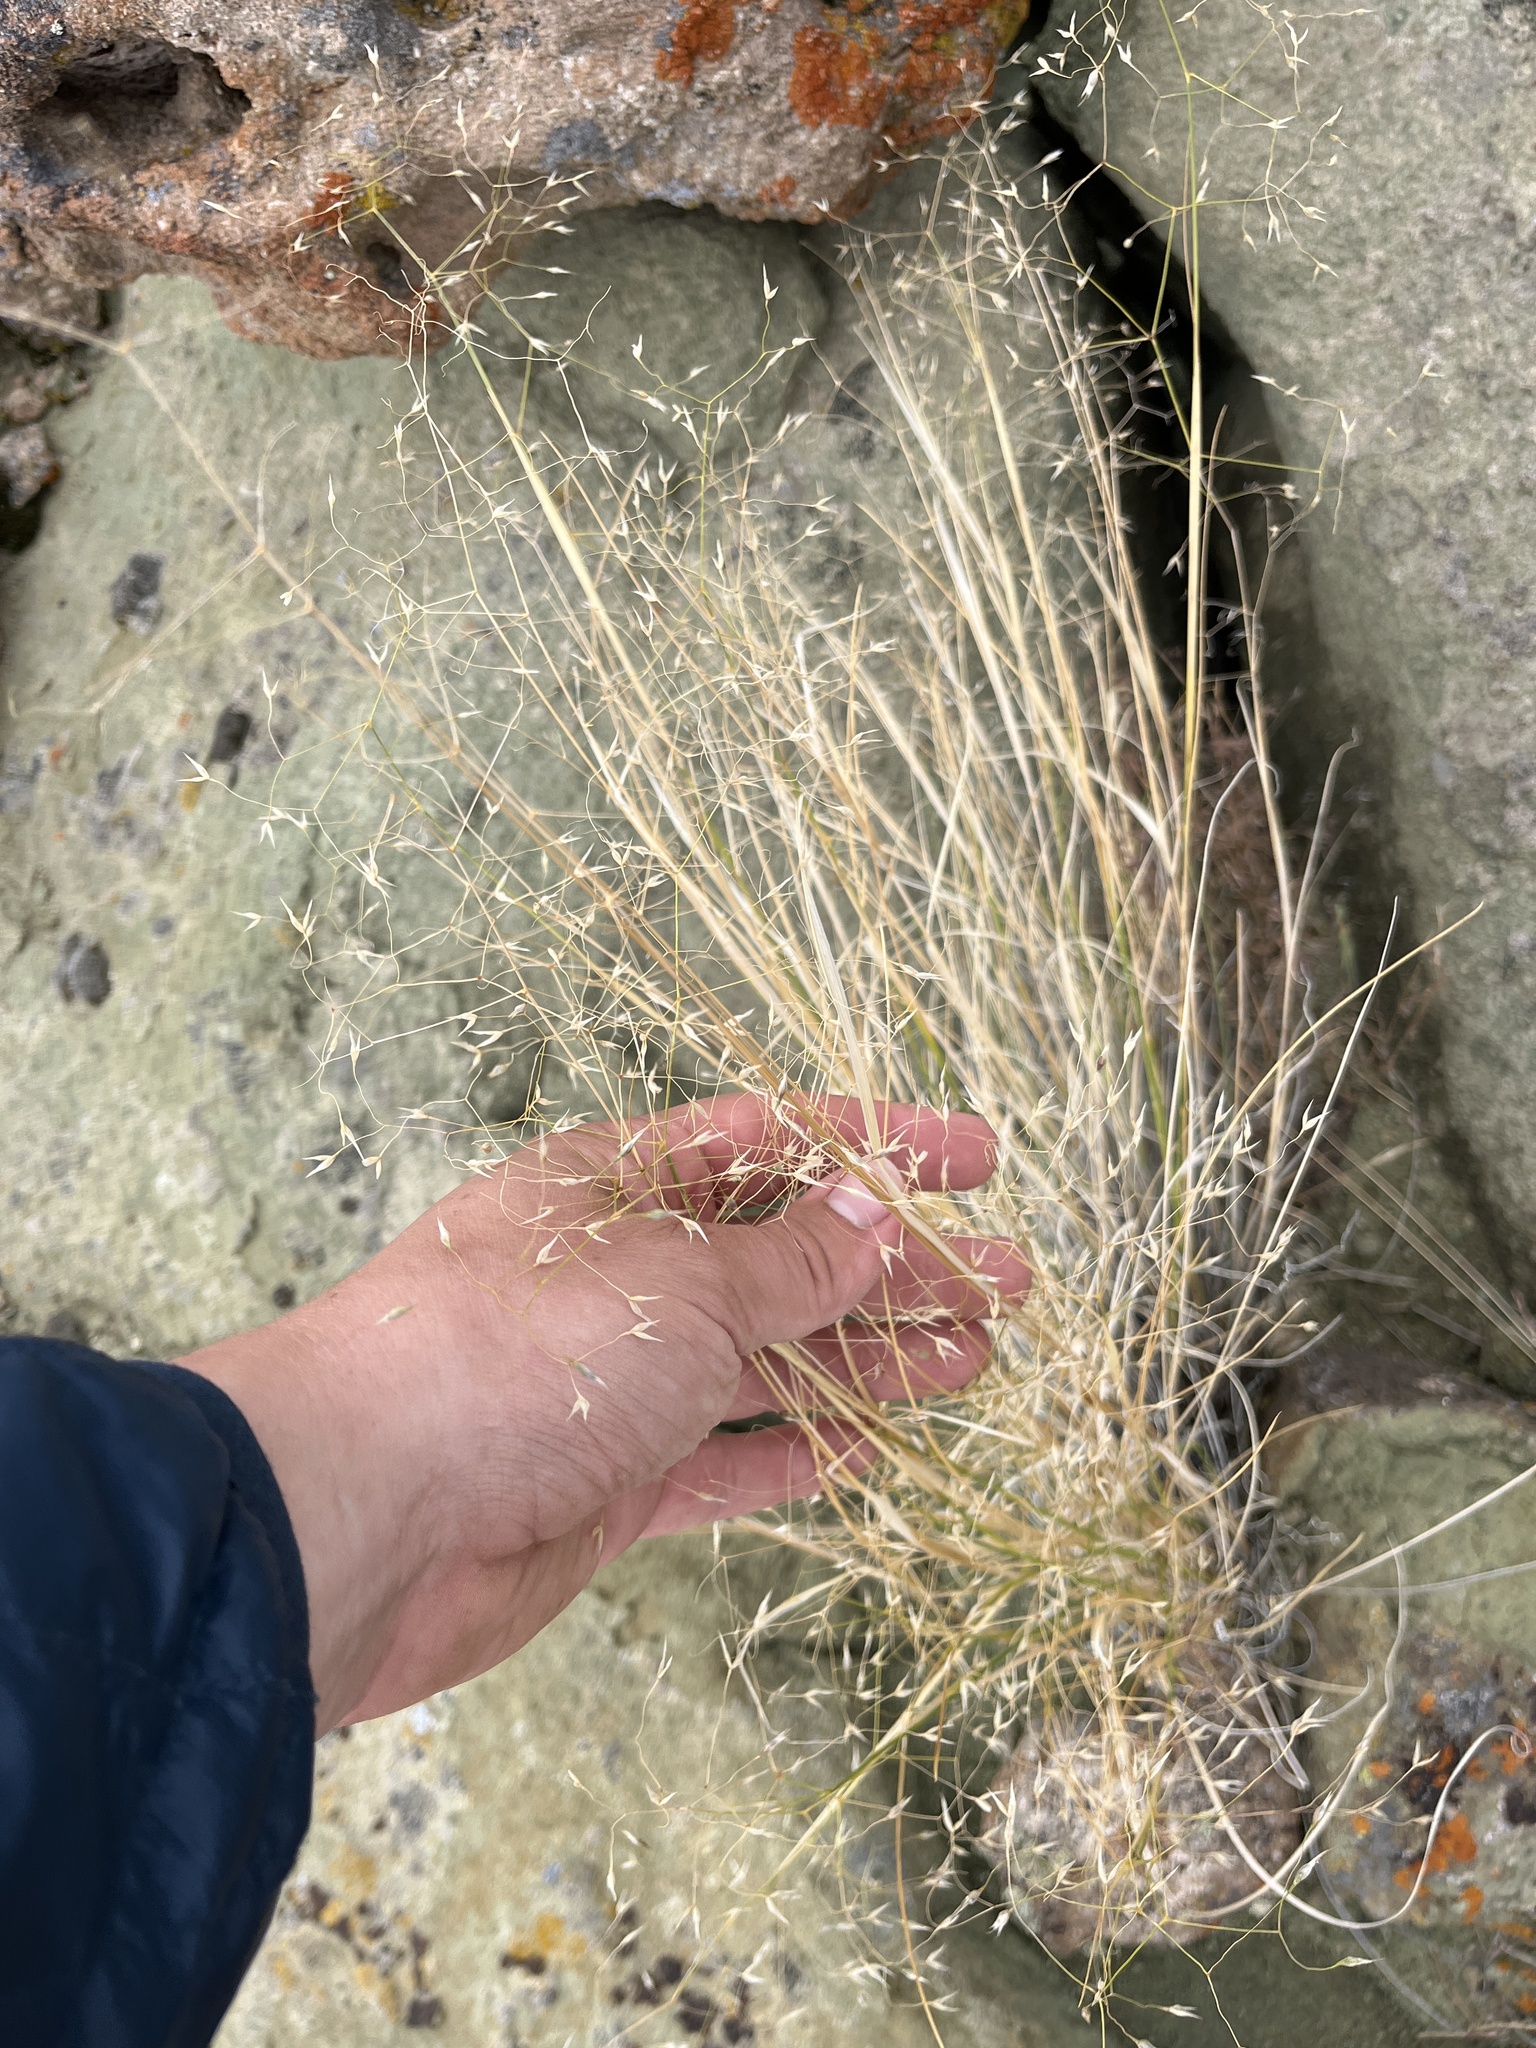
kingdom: Plantae
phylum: Tracheophyta
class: Liliopsida
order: Poales
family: Poaceae
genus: Eriocoma
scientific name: Eriocoma hymenoides
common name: Indian mountain ricegrass
